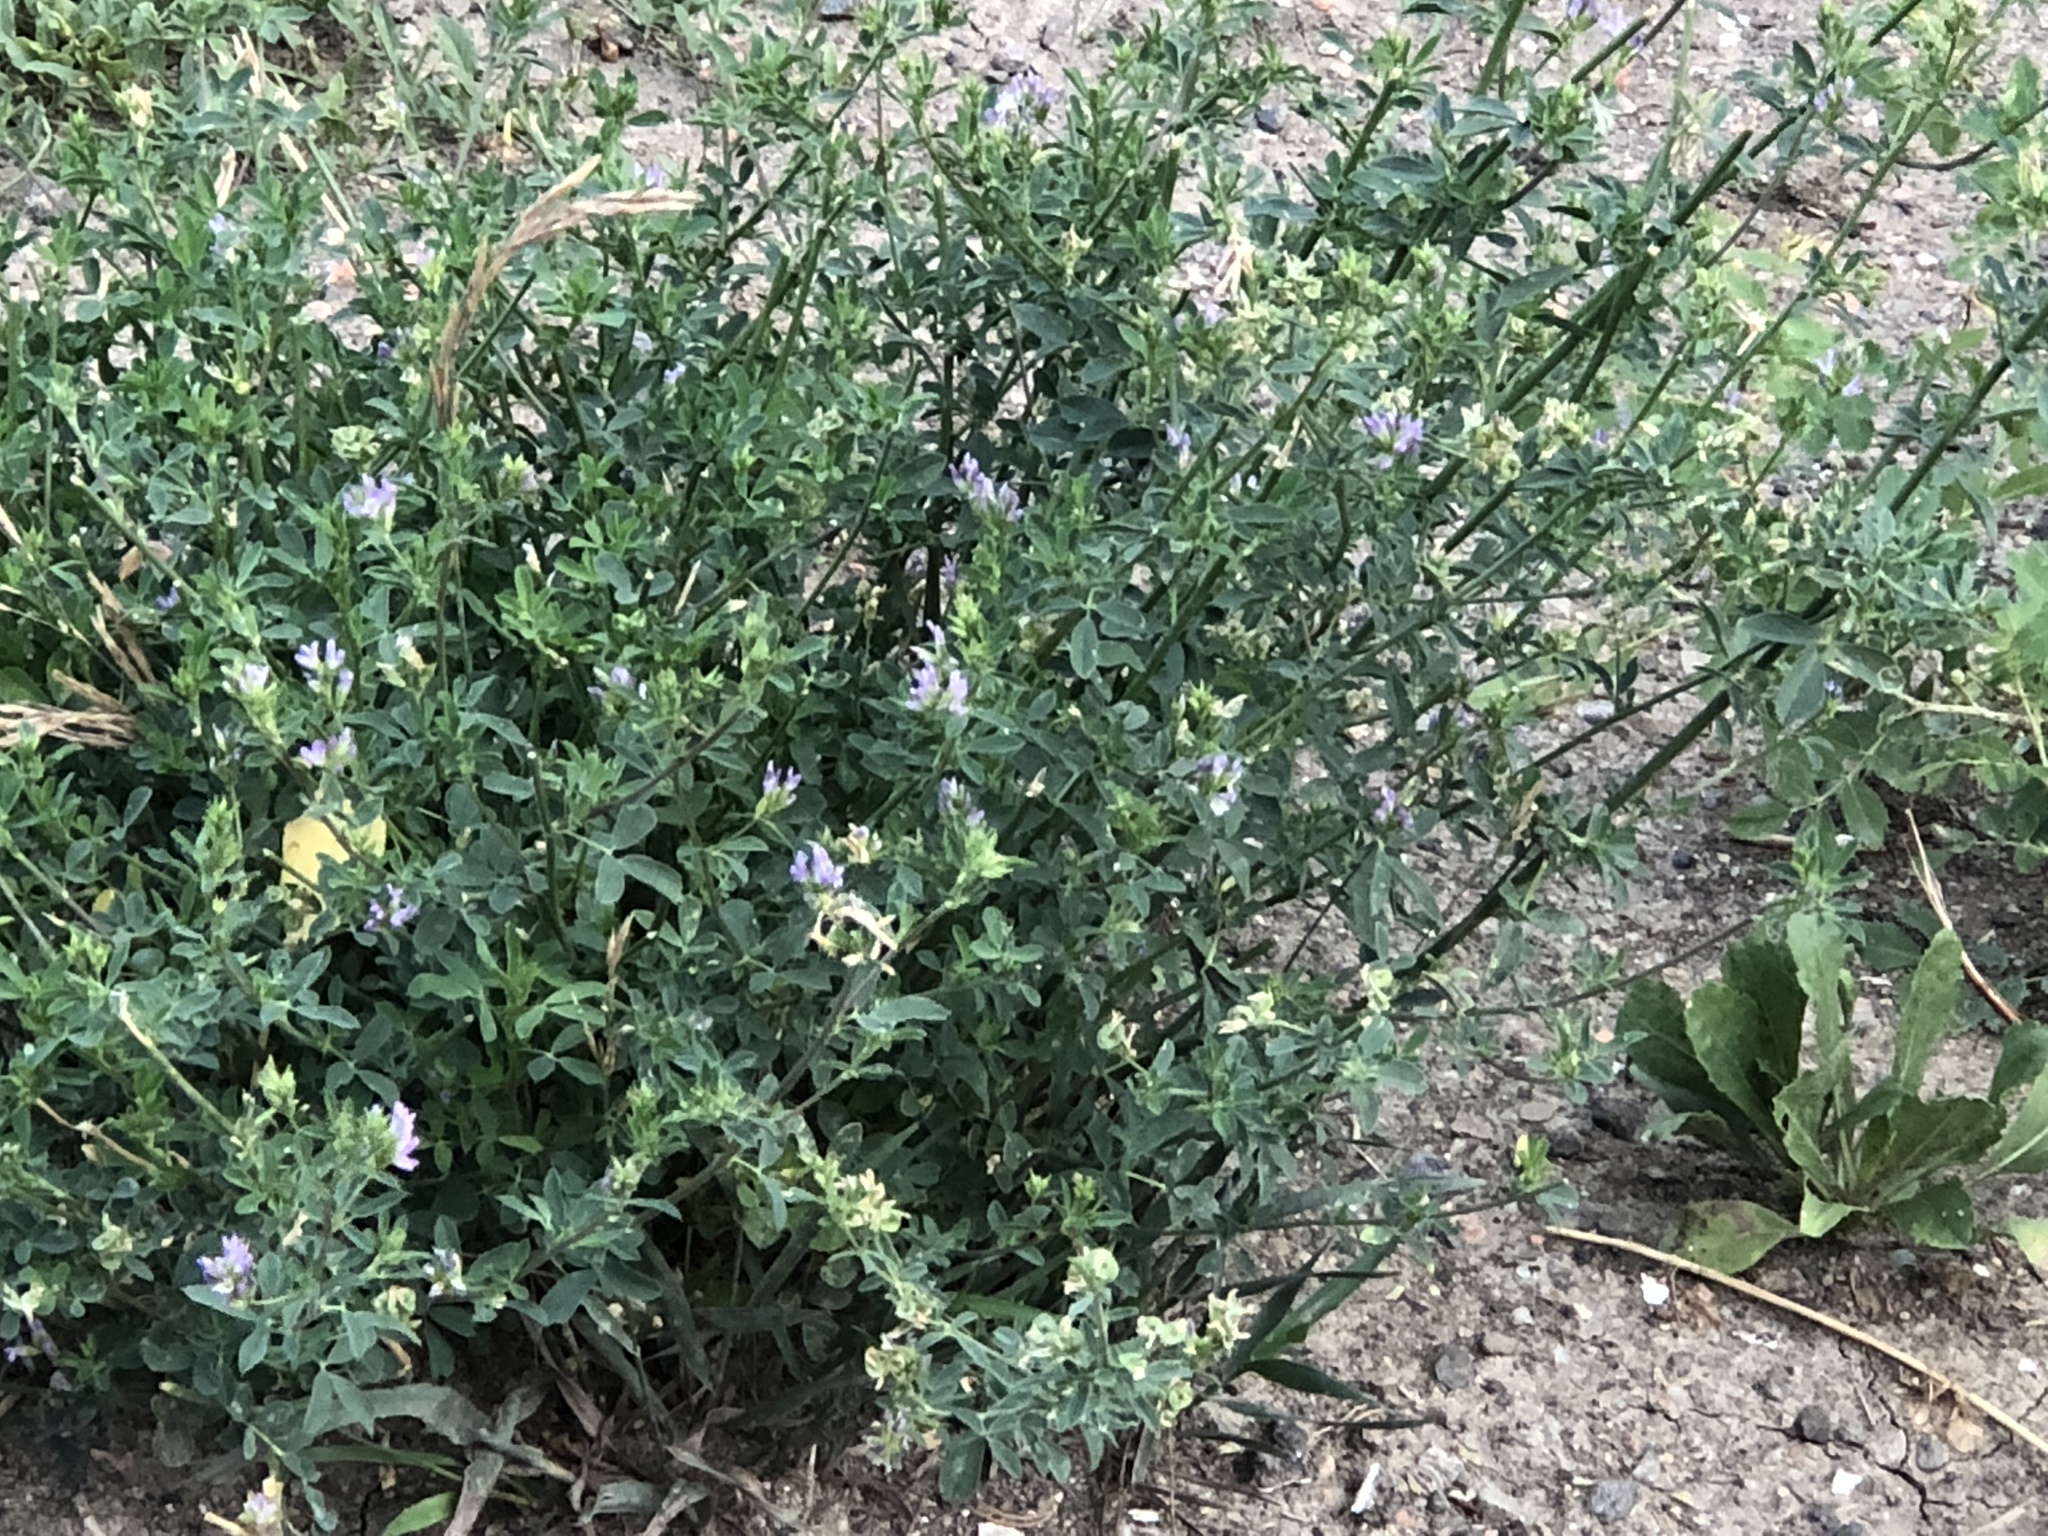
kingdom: Plantae
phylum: Tracheophyta
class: Magnoliopsida
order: Fabales
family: Fabaceae
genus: Medicago
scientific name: Medicago sativa
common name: Alfalfa
